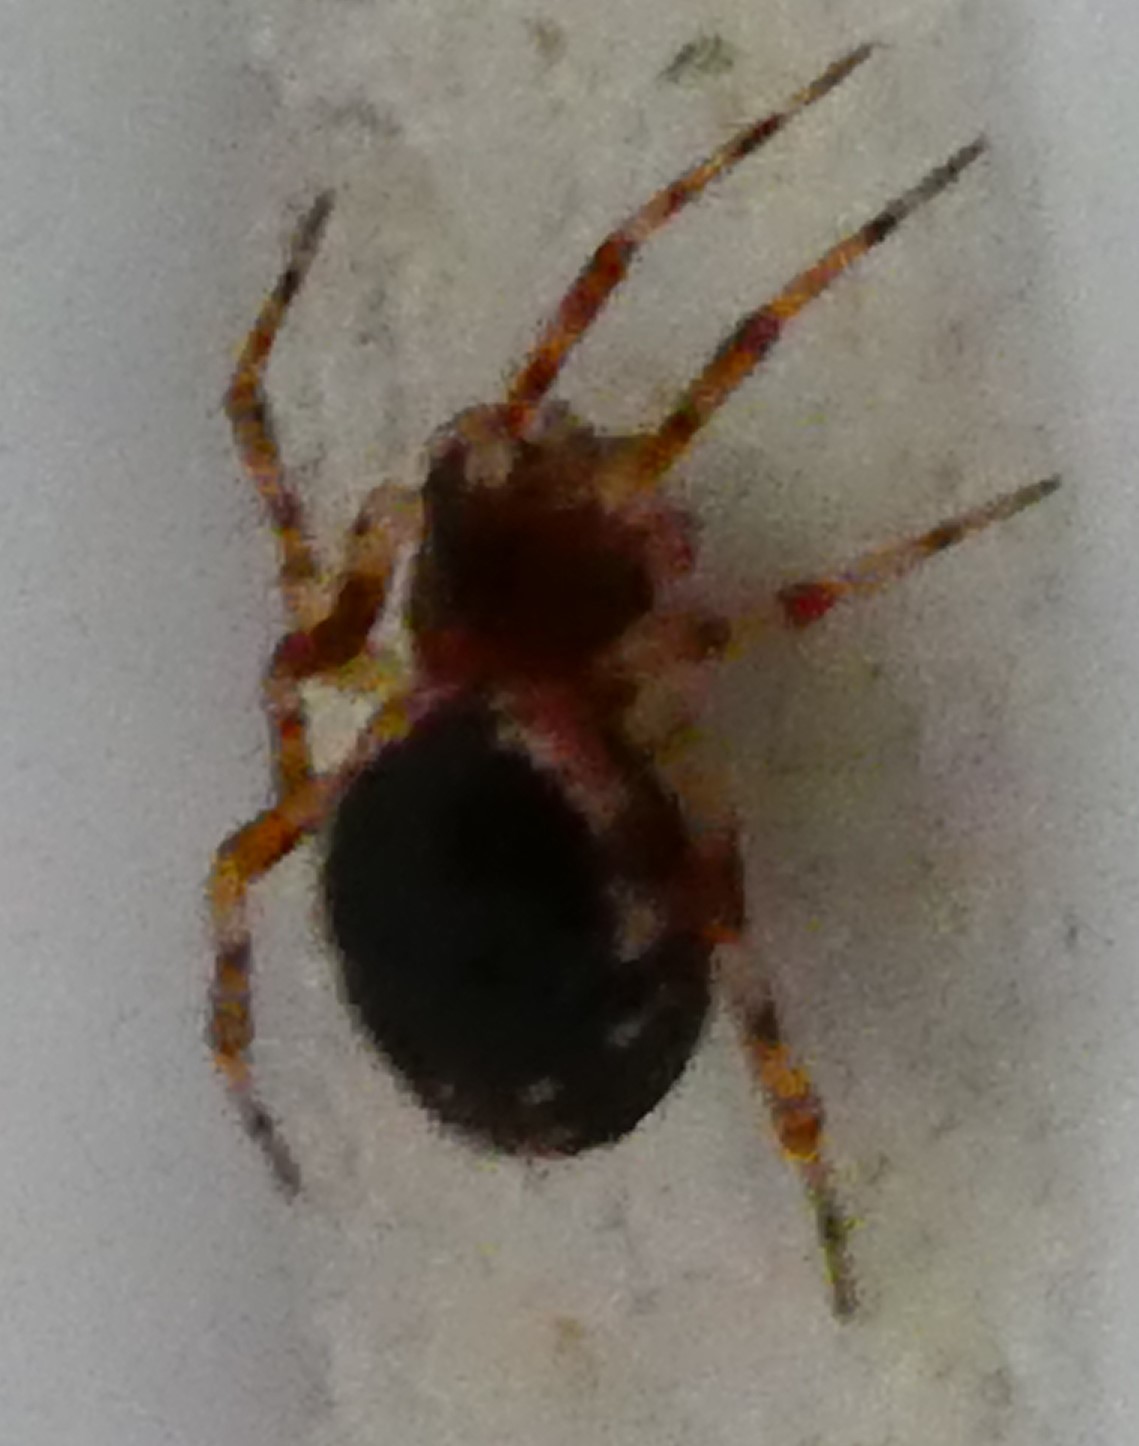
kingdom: Animalia
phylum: Arthropoda
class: Arachnida
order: Araneae
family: Theridiidae
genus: Sardinidion
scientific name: Sardinidion blackwalli
